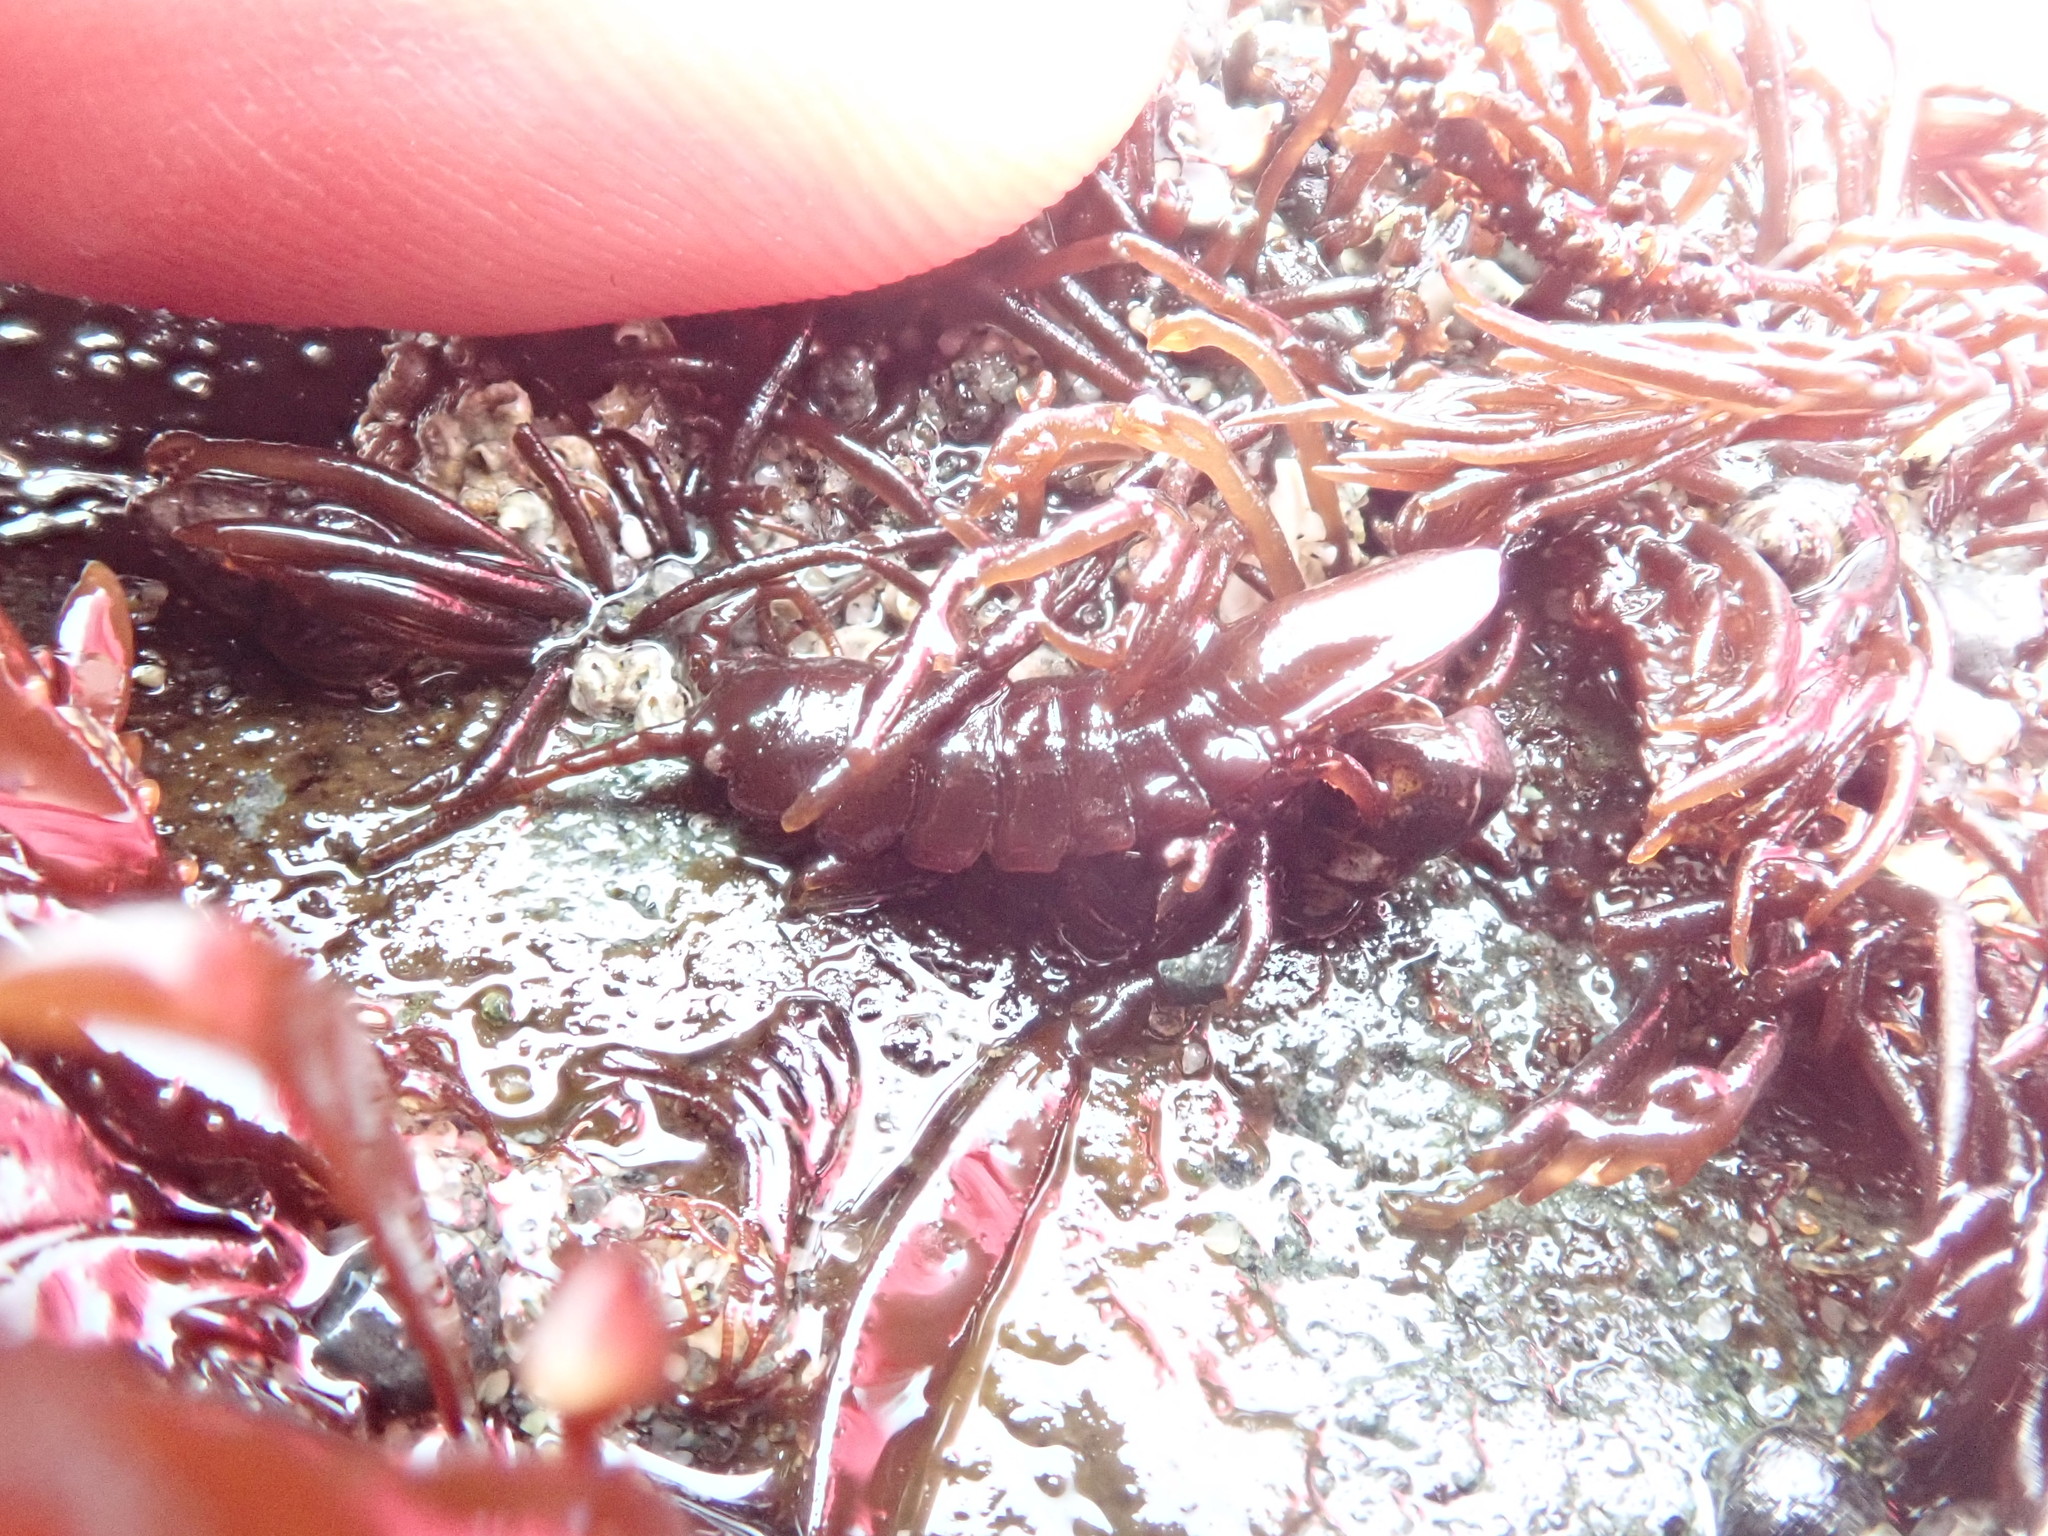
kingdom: Animalia
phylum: Arthropoda
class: Malacostraca
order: Isopoda
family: Idoteidae
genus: Pentidotea
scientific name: Pentidotea wosnesenskii
